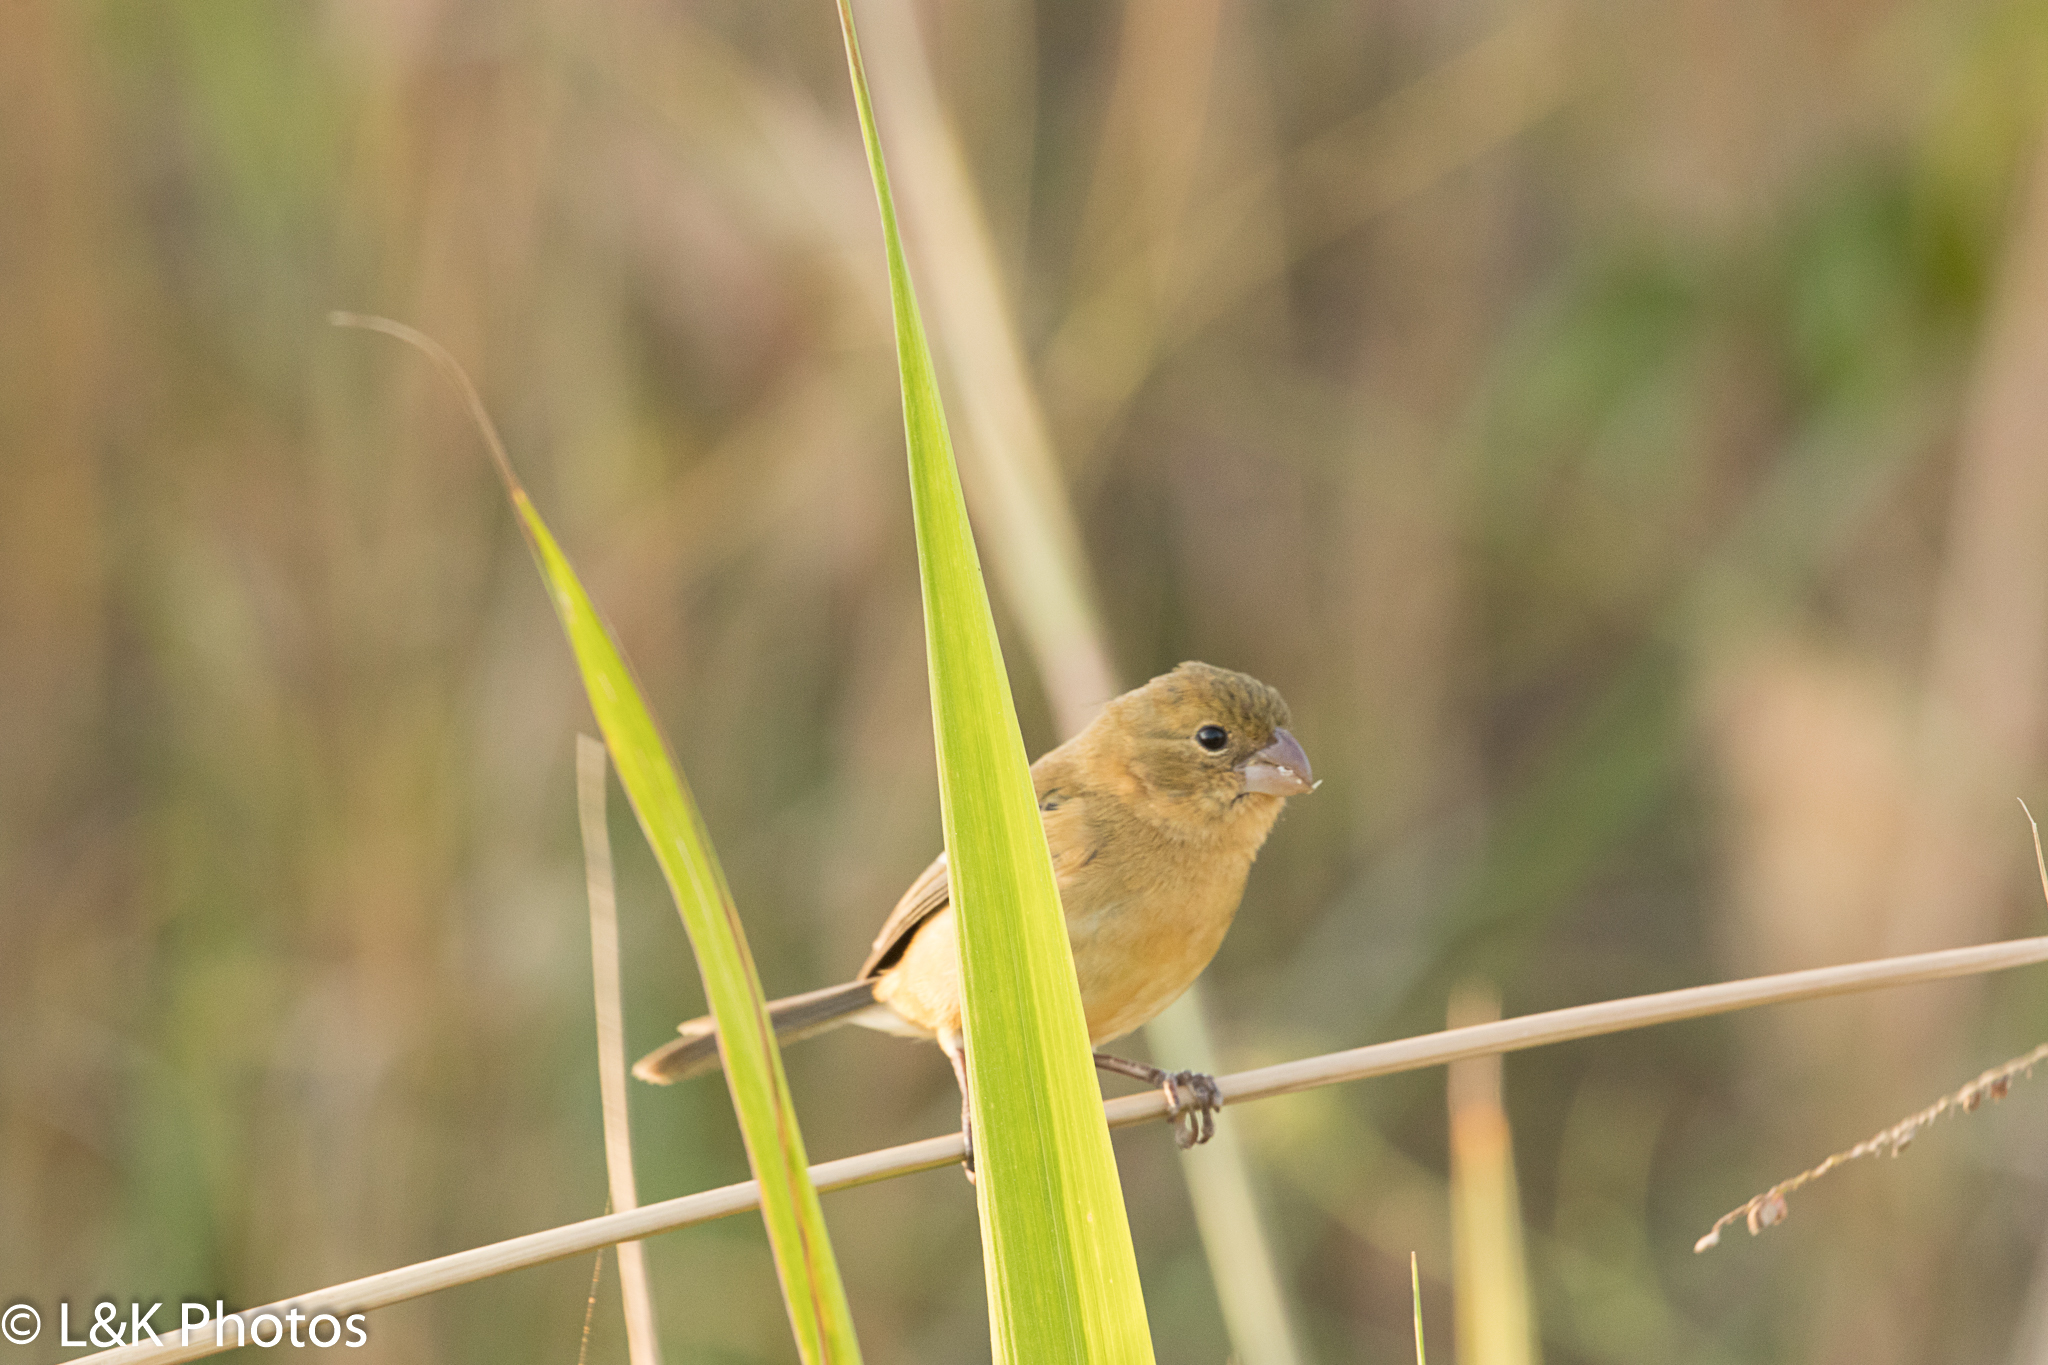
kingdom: Animalia
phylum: Chordata
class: Aves
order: Passeriformes
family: Thraupidae
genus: Sporophila
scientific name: Sporophila morelleti
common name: Morelet's seedeater
